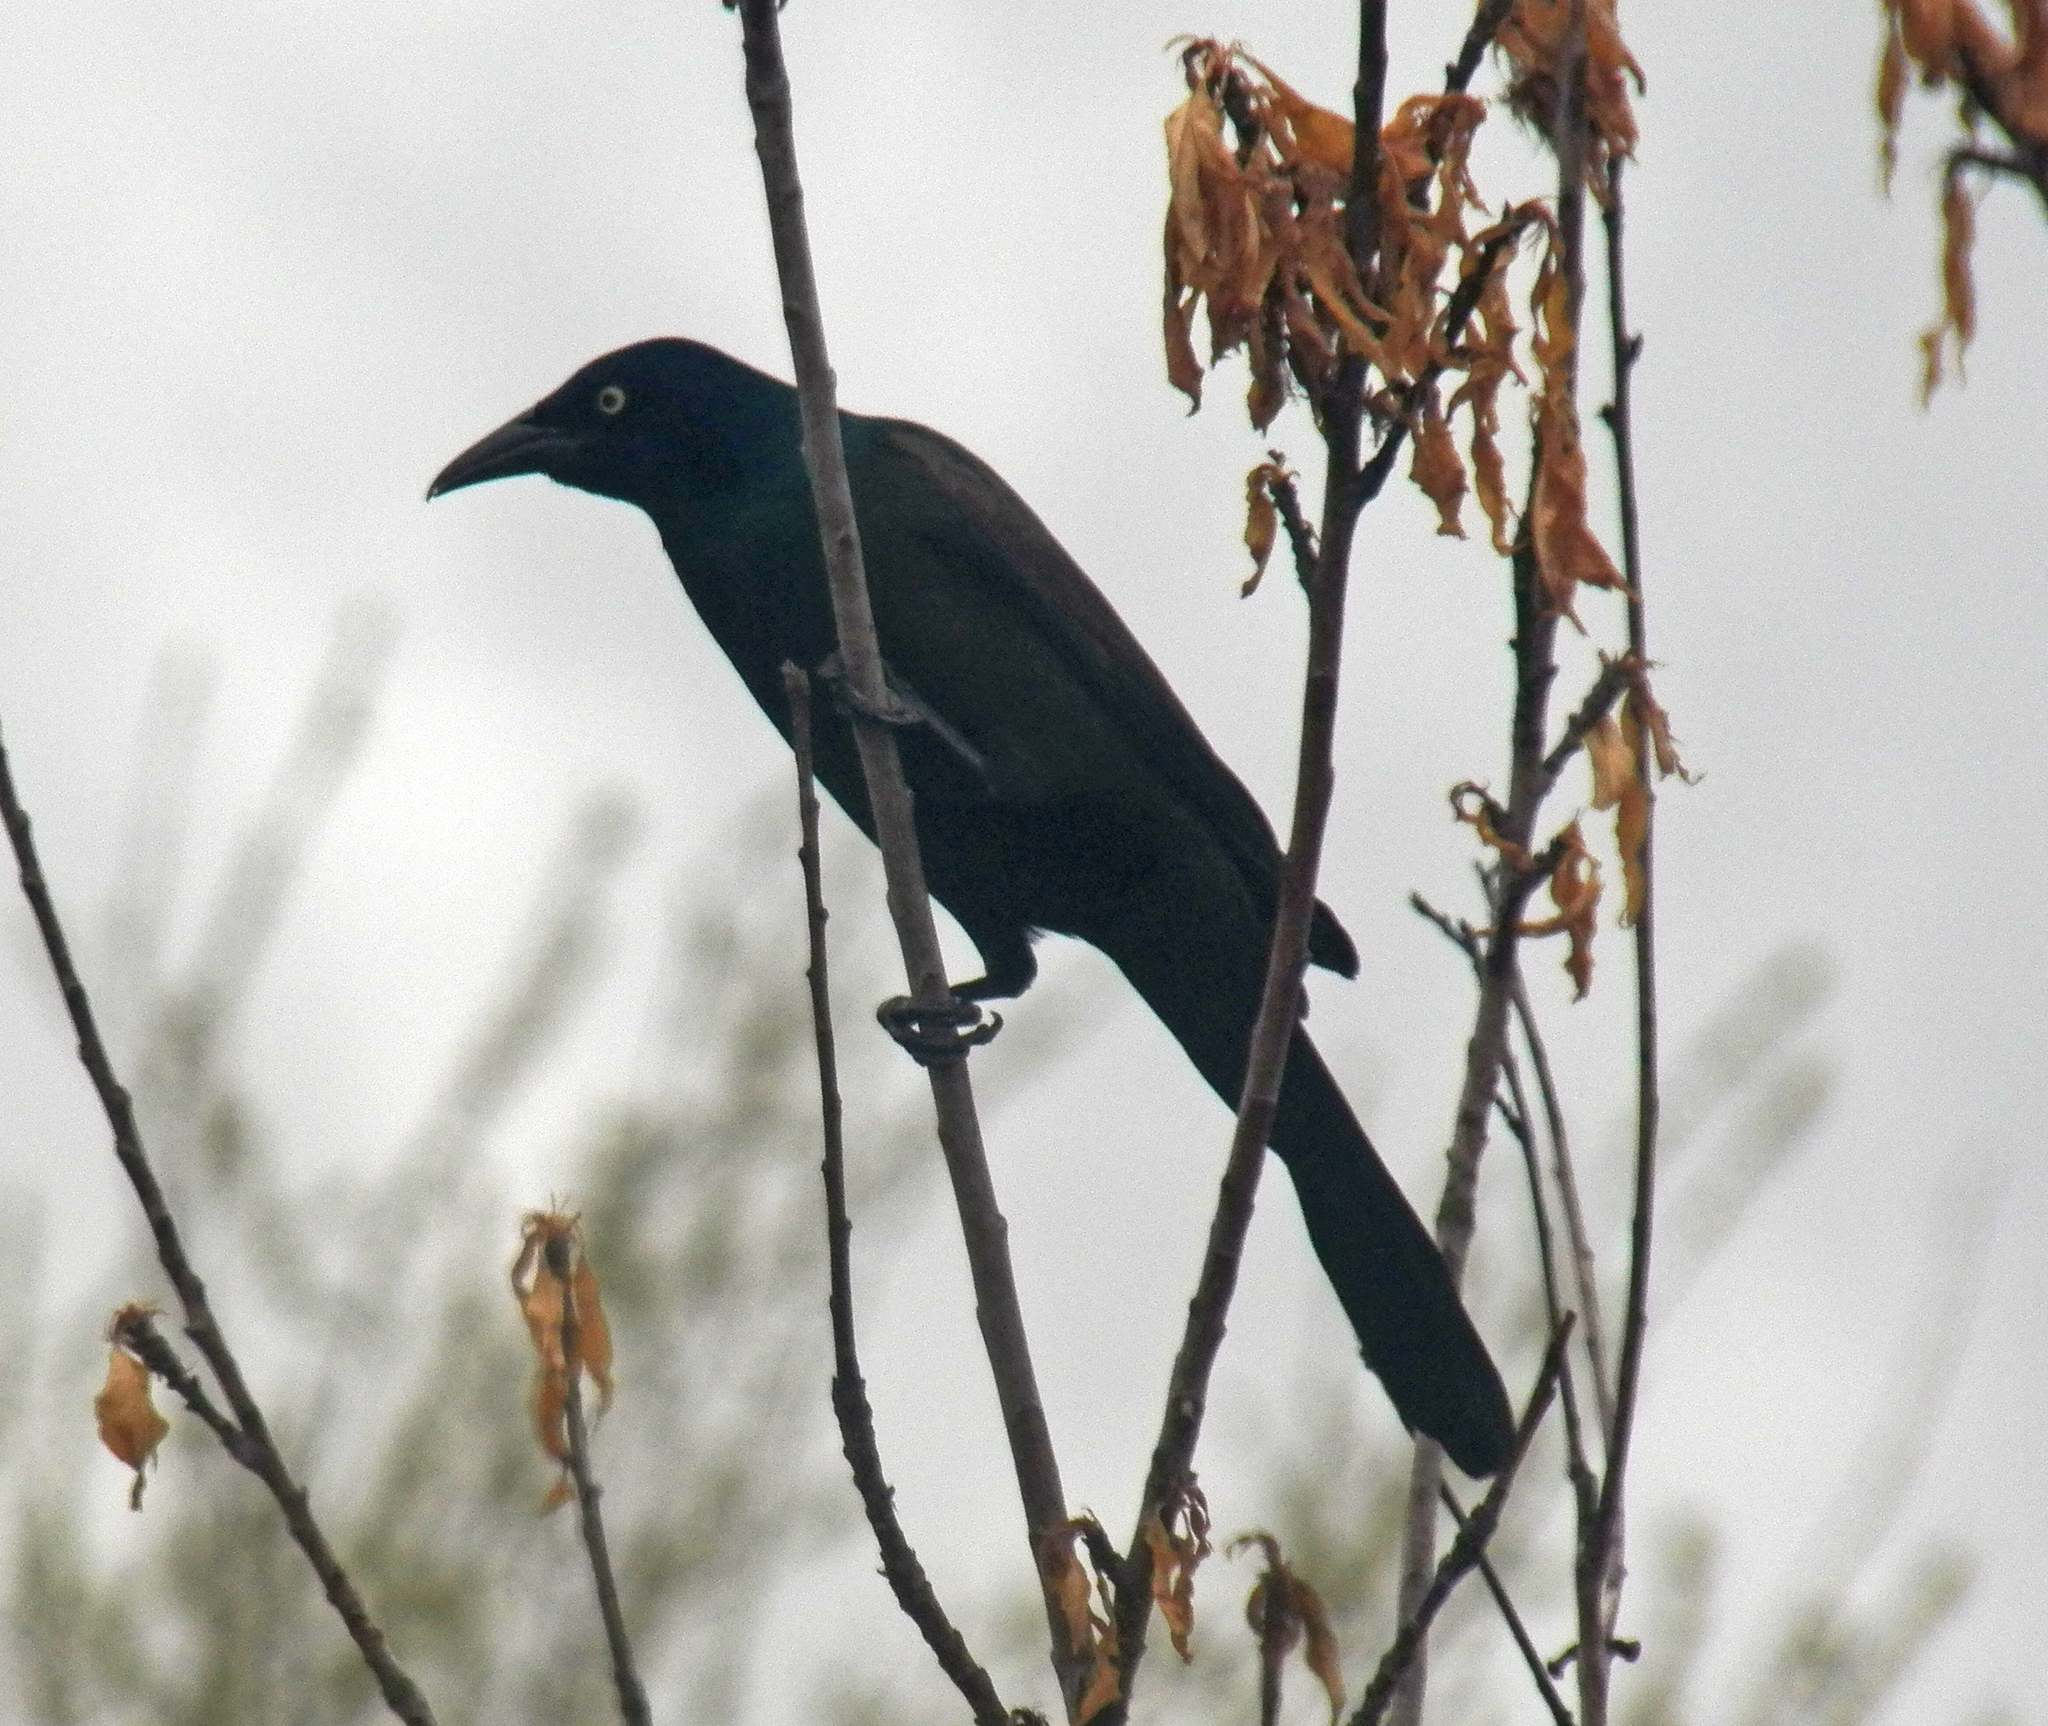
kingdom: Animalia
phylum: Chordata
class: Aves
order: Passeriformes
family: Icteridae
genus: Quiscalus
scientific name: Quiscalus quiscula
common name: Common grackle
